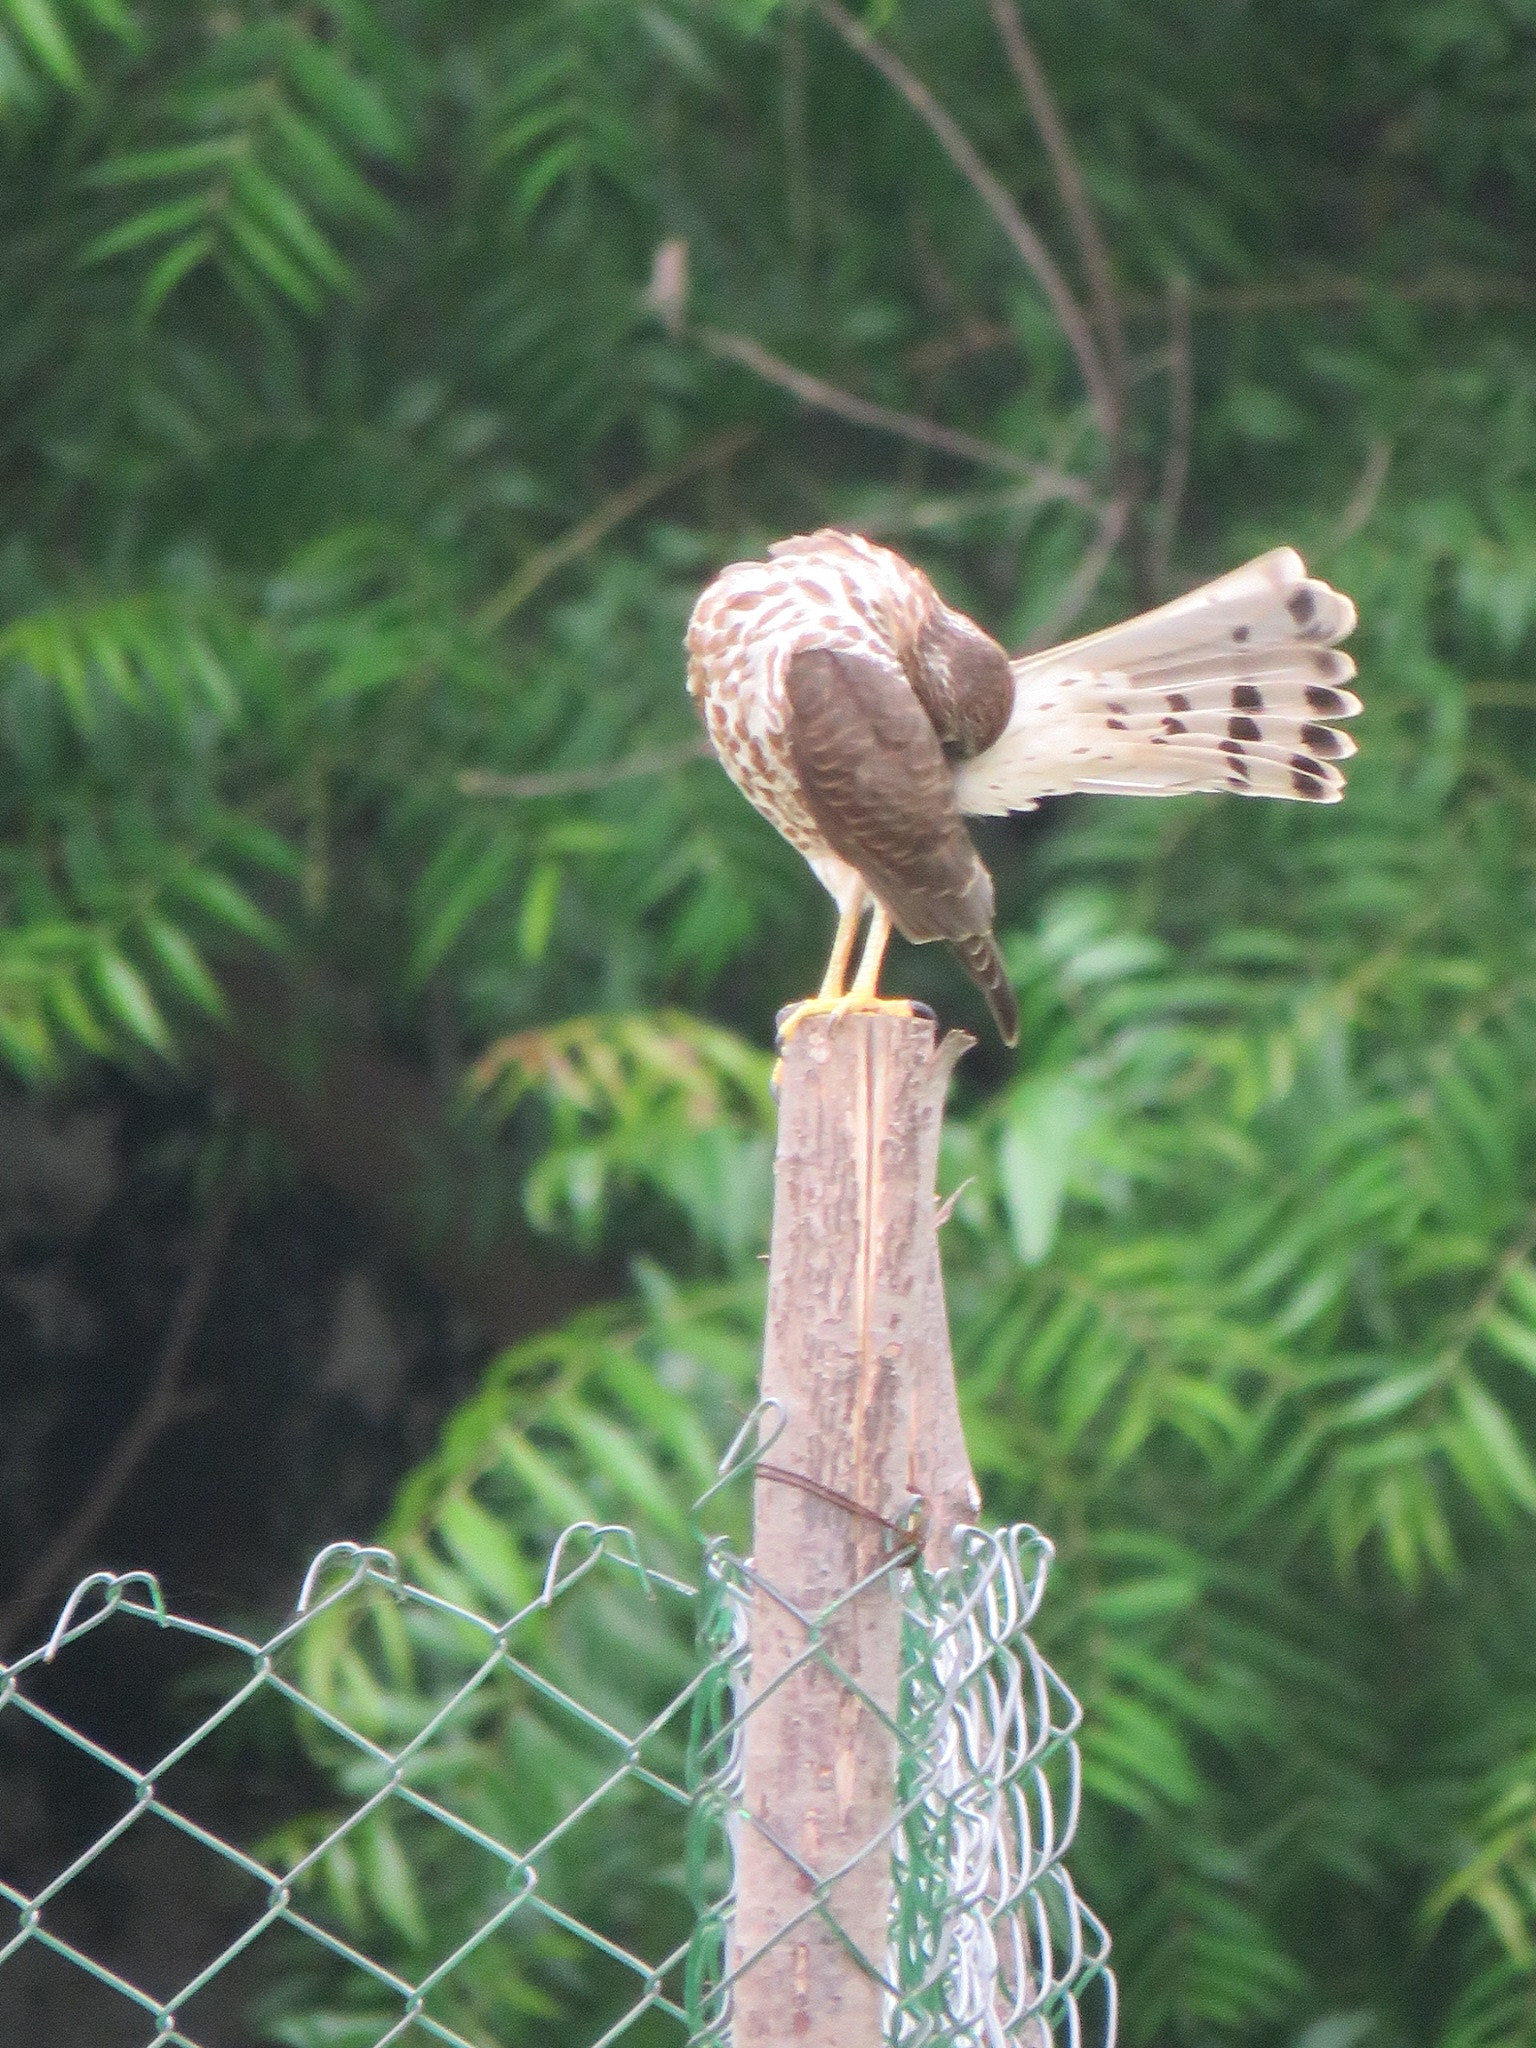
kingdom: Animalia
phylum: Chordata
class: Aves
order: Accipitriformes
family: Accipitridae
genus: Accipiter
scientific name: Accipiter badius
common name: Shikra
